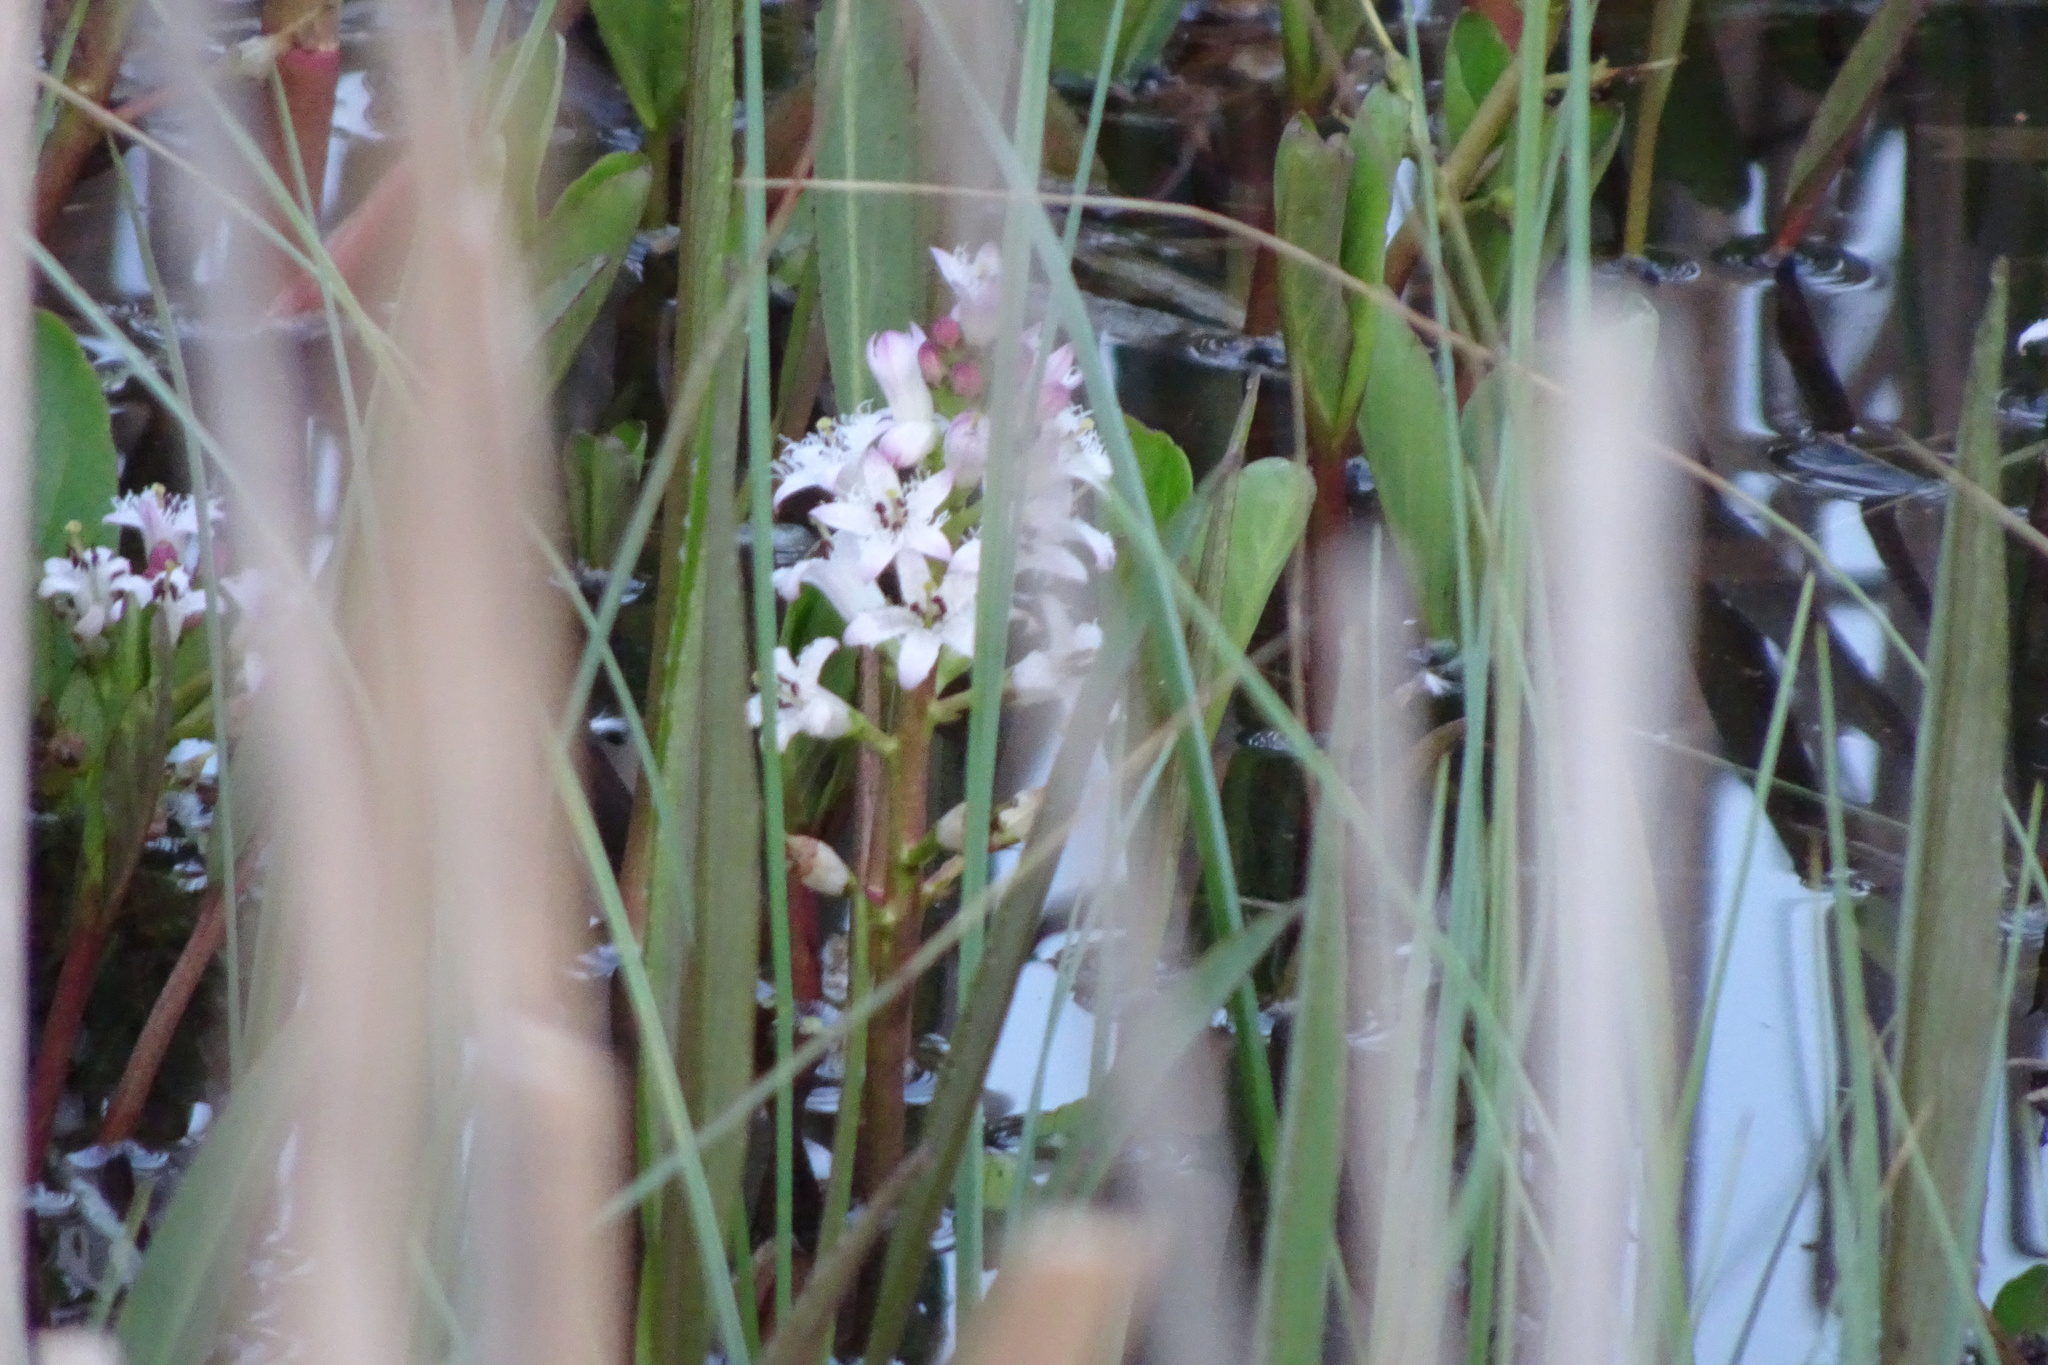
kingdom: Plantae
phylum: Tracheophyta
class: Magnoliopsida
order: Asterales
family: Menyanthaceae
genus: Menyanthes
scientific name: Menyanthes trifoliata
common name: Bogbean
